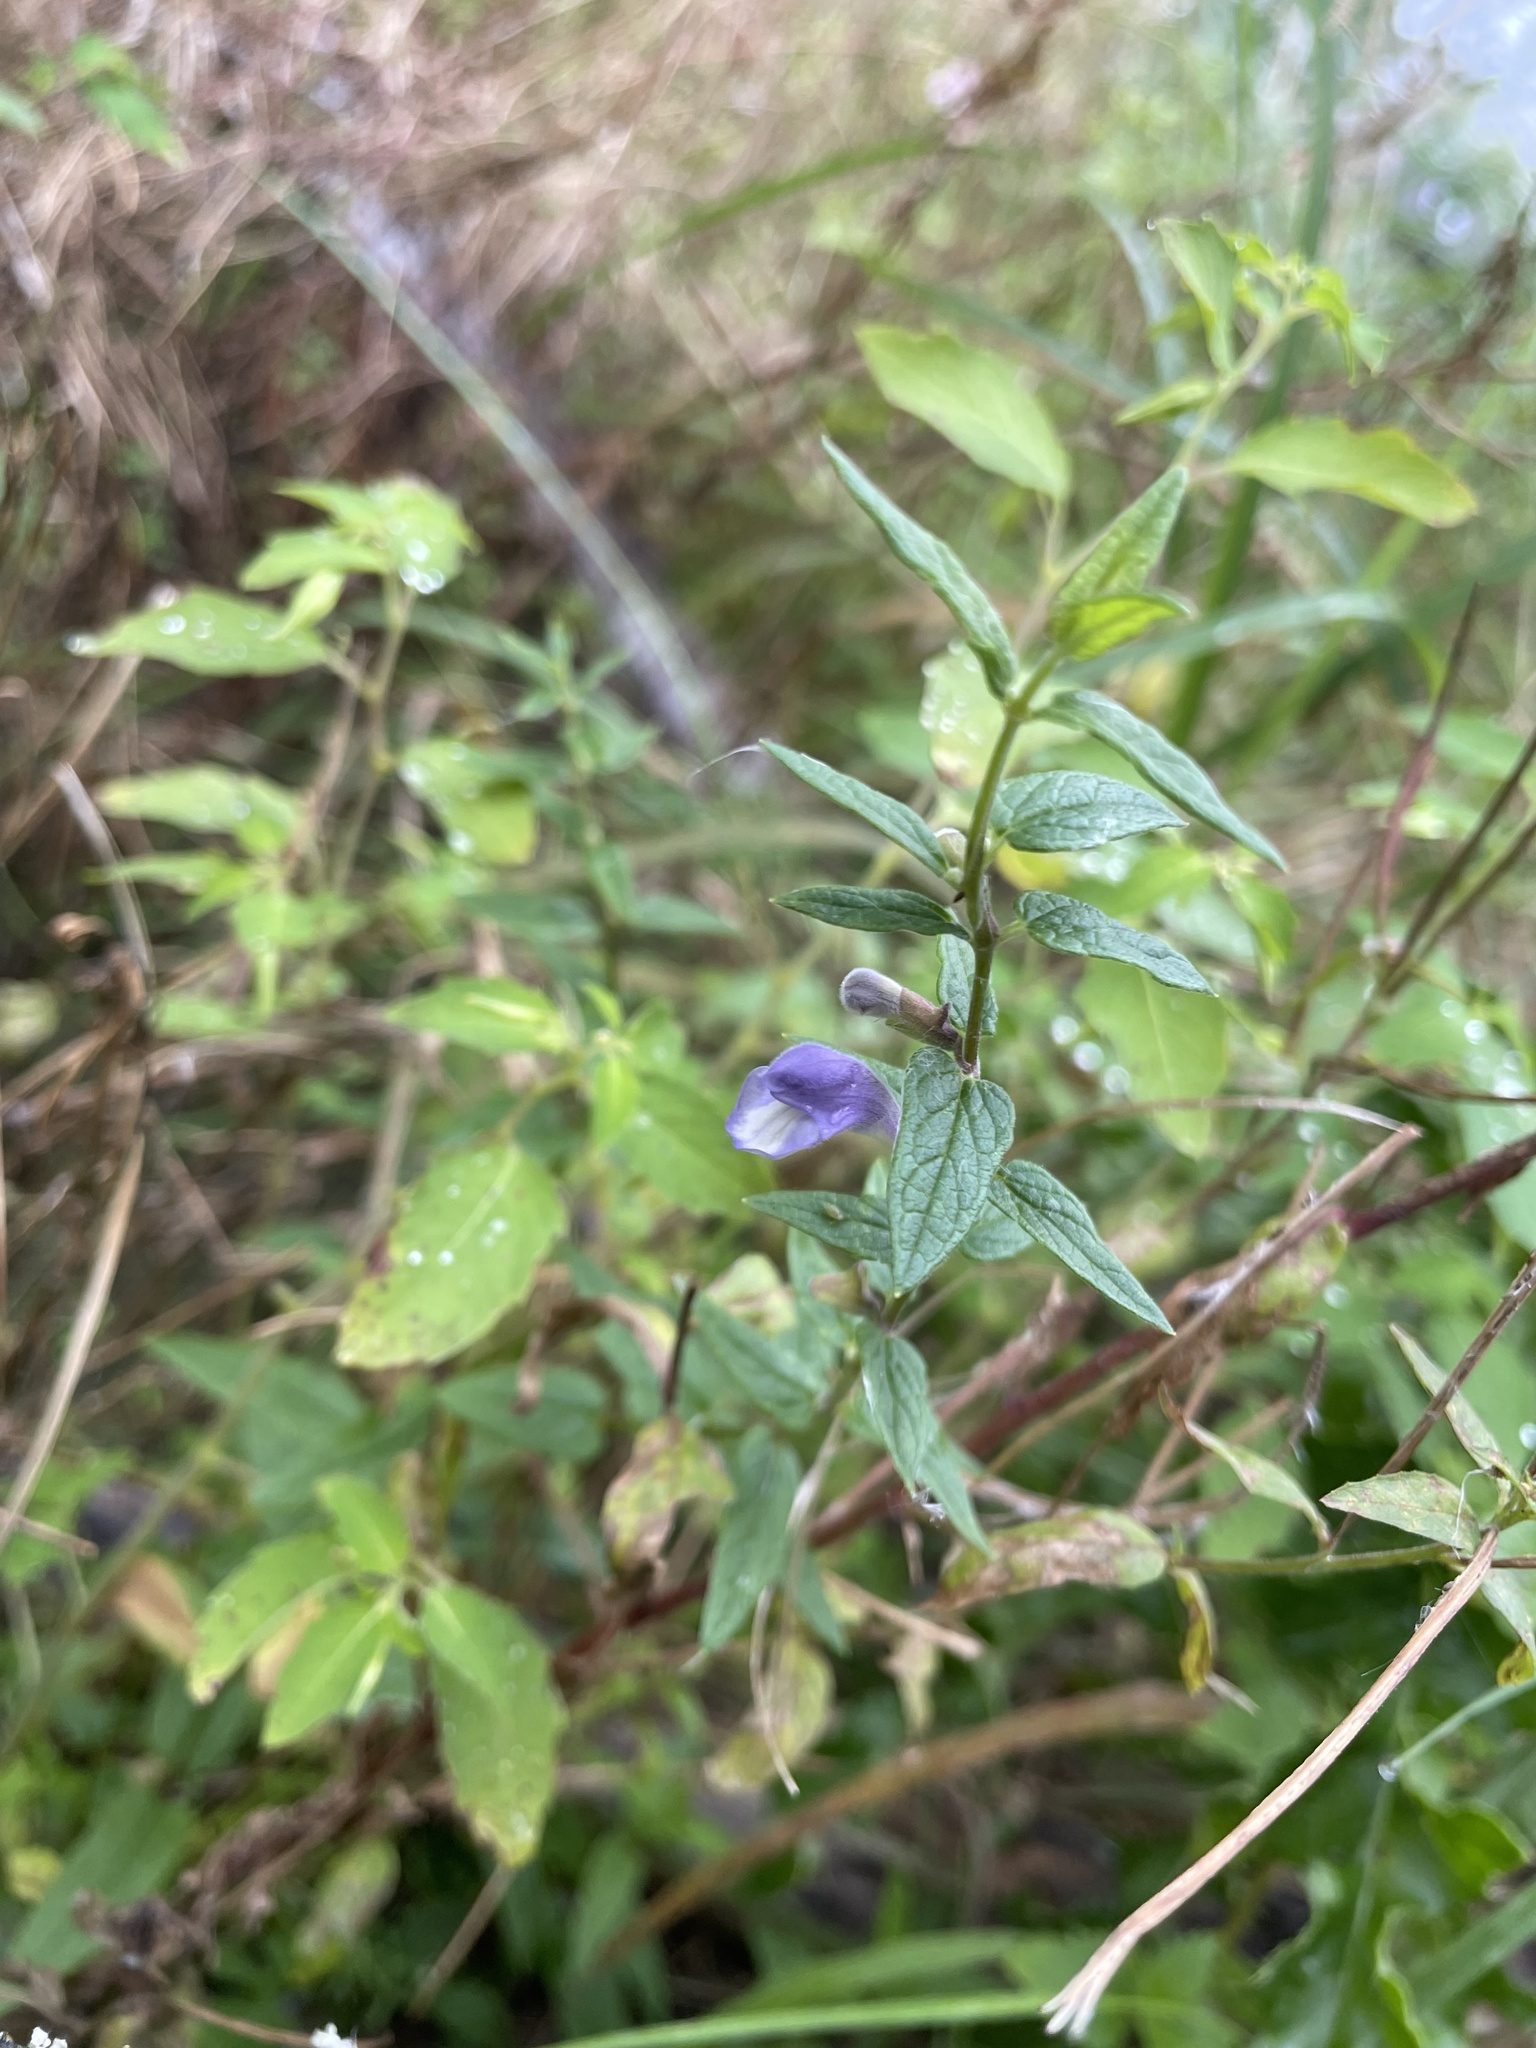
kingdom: Plantae
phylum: Tracheophyta
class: Magnoliopsida
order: Lamiales
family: Lamiaceae
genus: Scutellaria
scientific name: Scutellaria galericulata
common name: Skullcap
